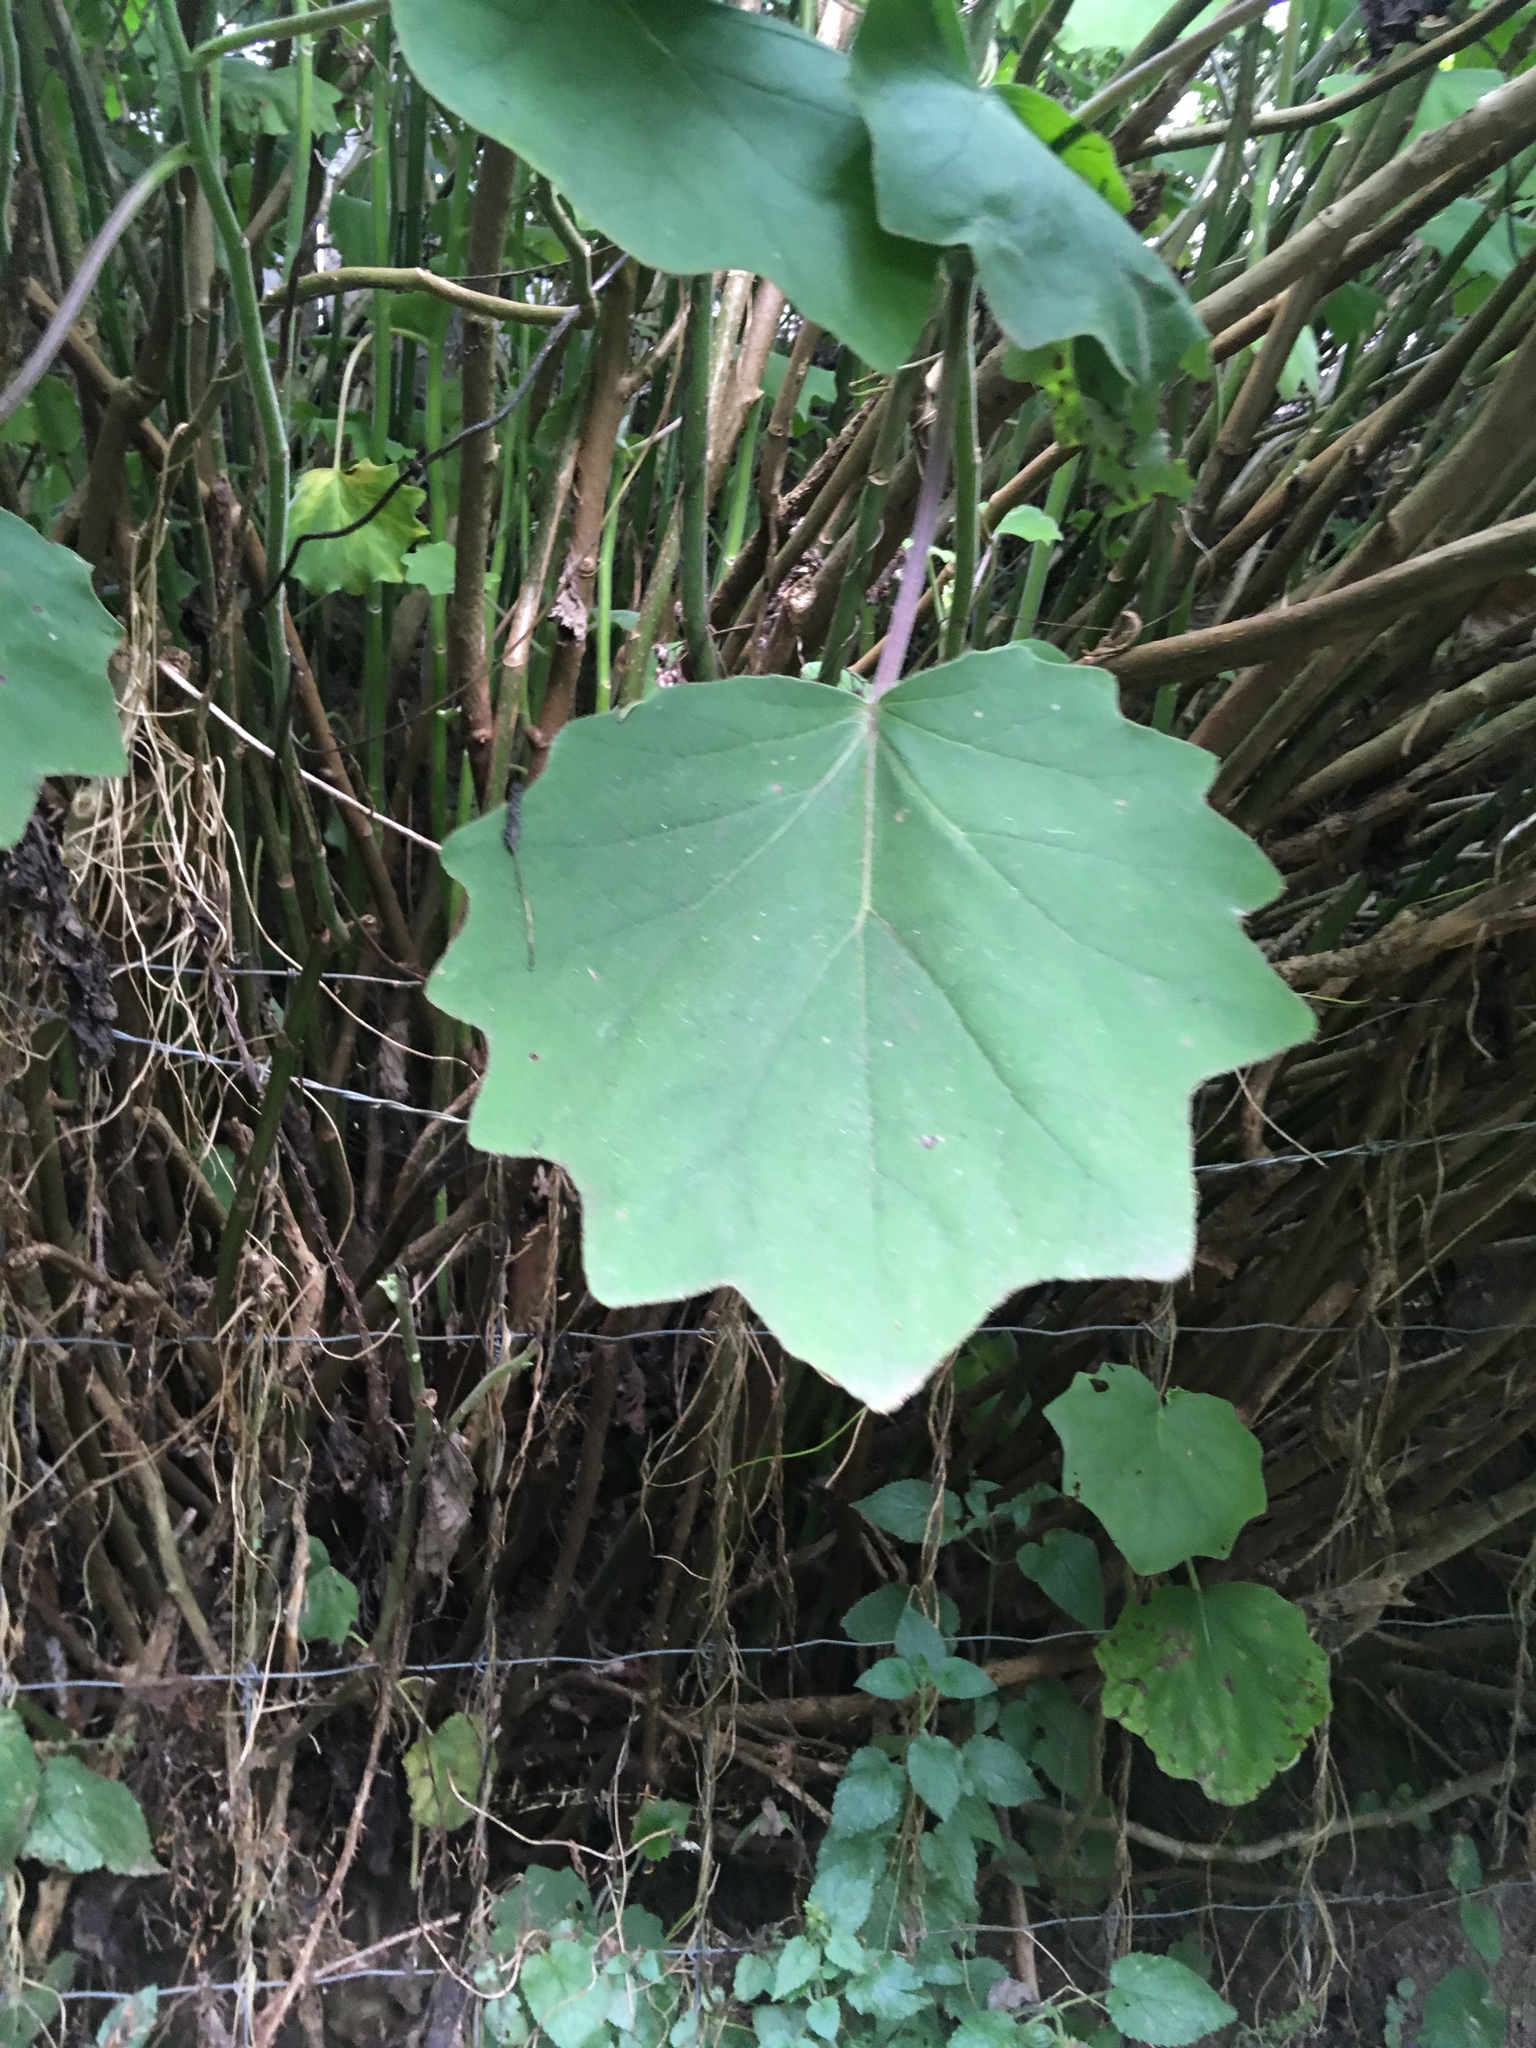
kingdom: Plantae
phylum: Tracheophyta
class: Magnoliopsida
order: Asterales
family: Asteraceae
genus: Roldana
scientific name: Roldana petasitis
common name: California-geranium
